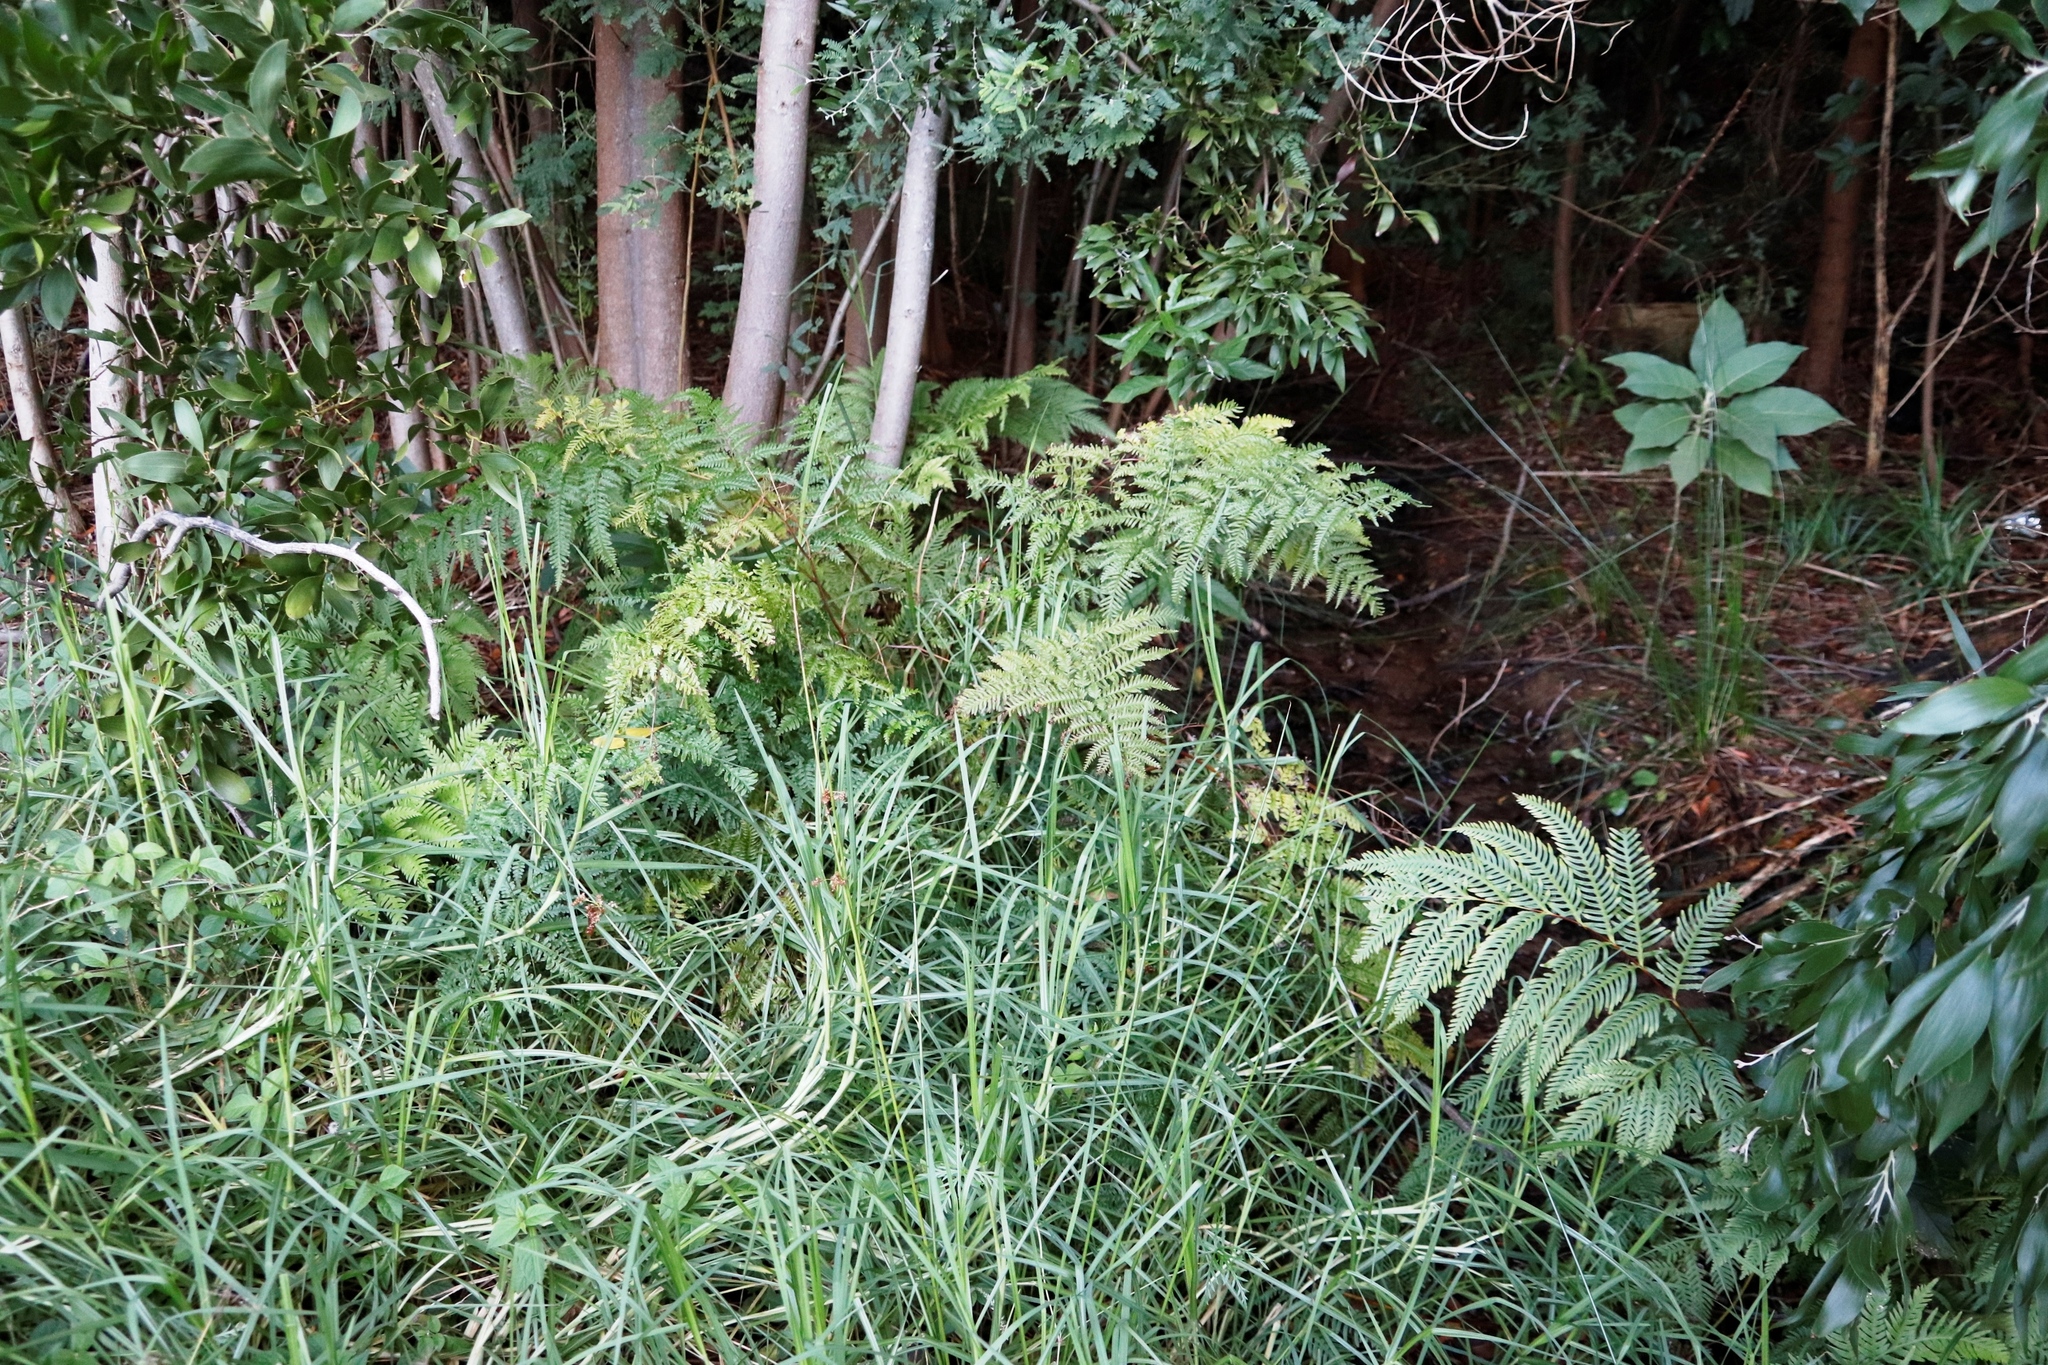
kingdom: Plantae
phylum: Tracheophyta
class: Polypodiopsida
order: Polypodiales
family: Pteridaceae
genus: Pteris
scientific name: Pteris tremula
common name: Australian brake
